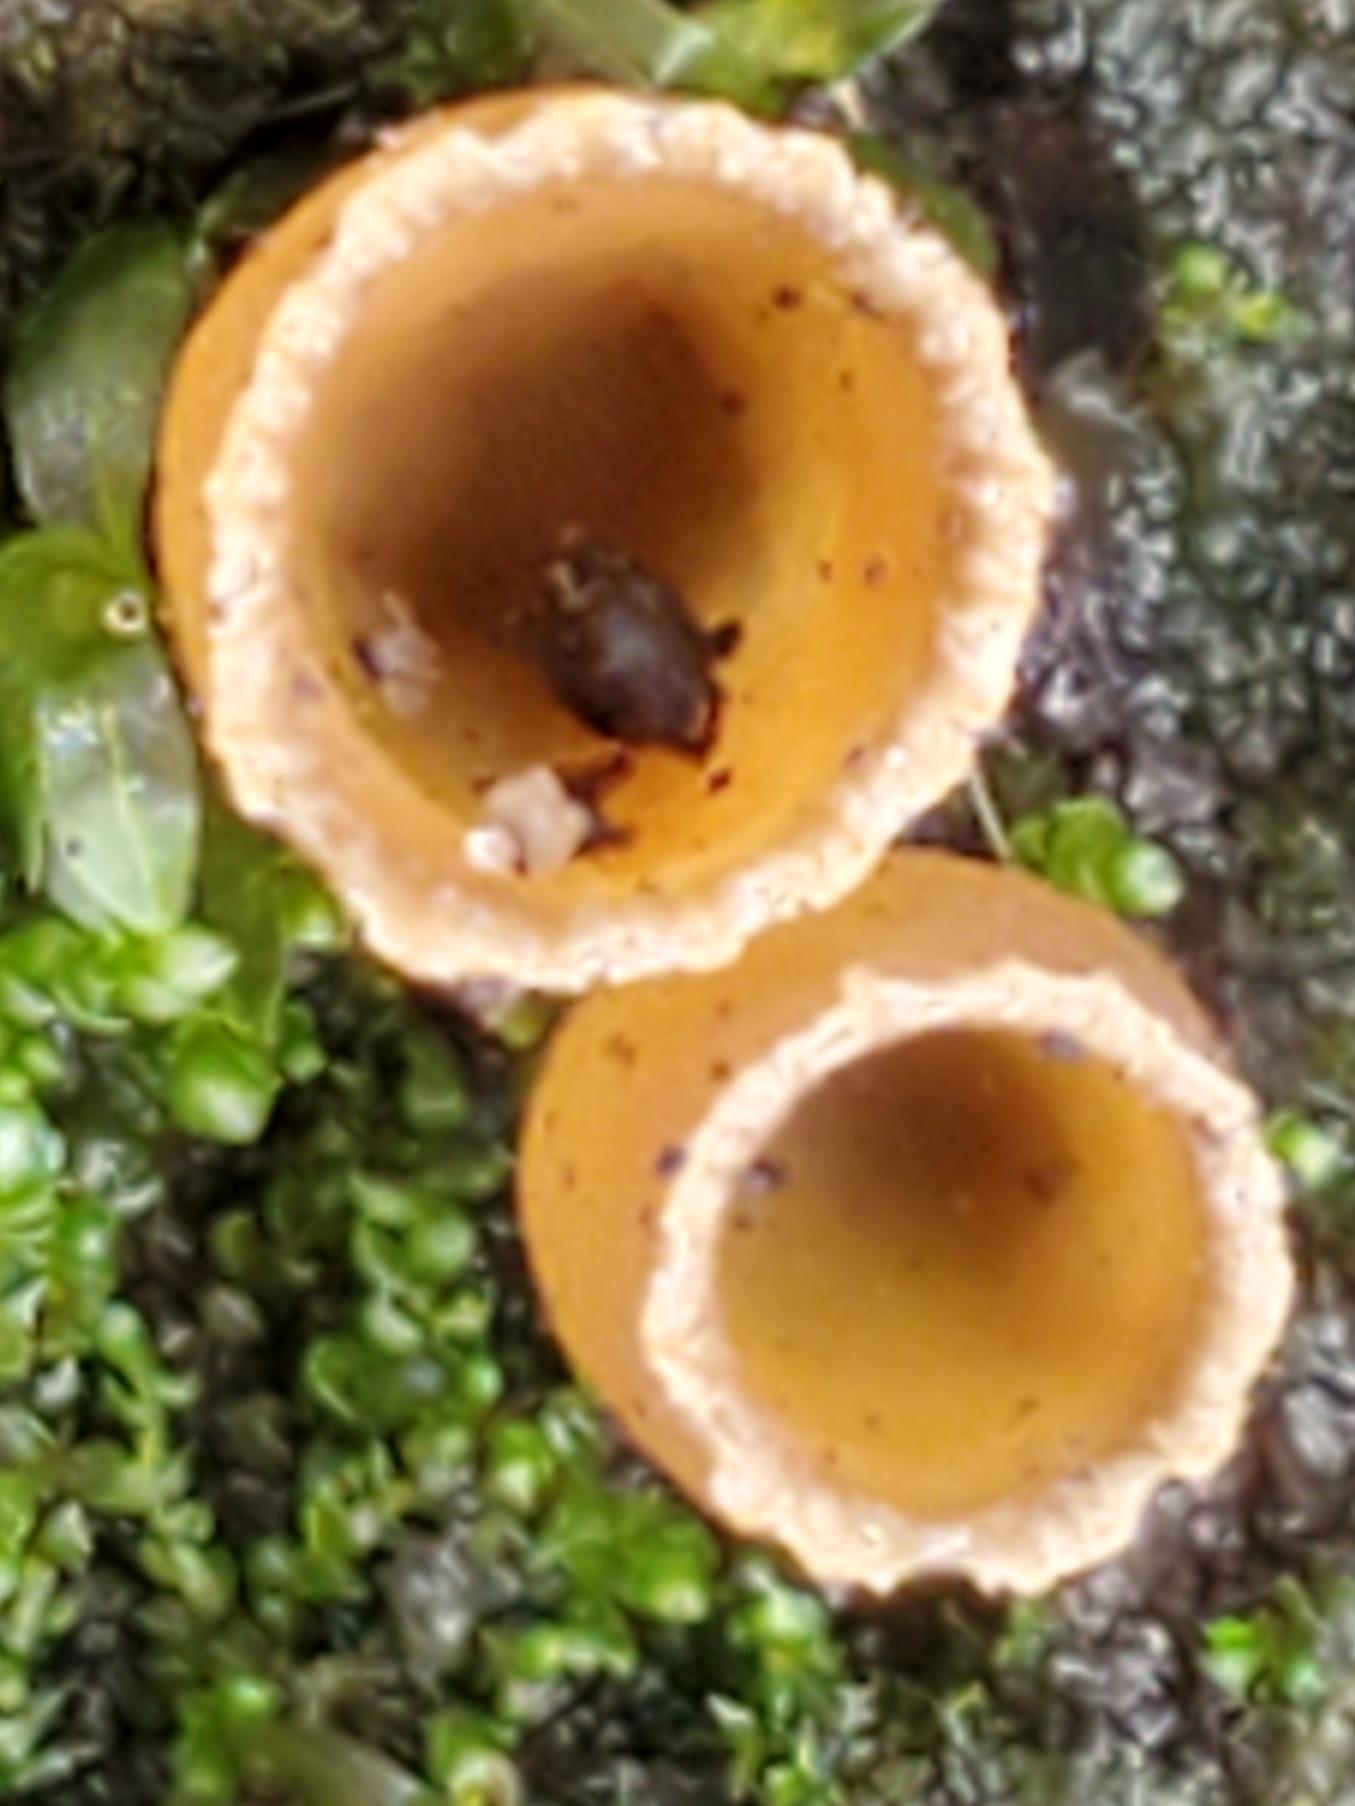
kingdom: Fungi
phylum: Ascomycota
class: Pezizomycetes
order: Pezizales
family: Pyronemataceae
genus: Geopyxis
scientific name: Geopyxis carbonaria
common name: Stalked bonfire cup
